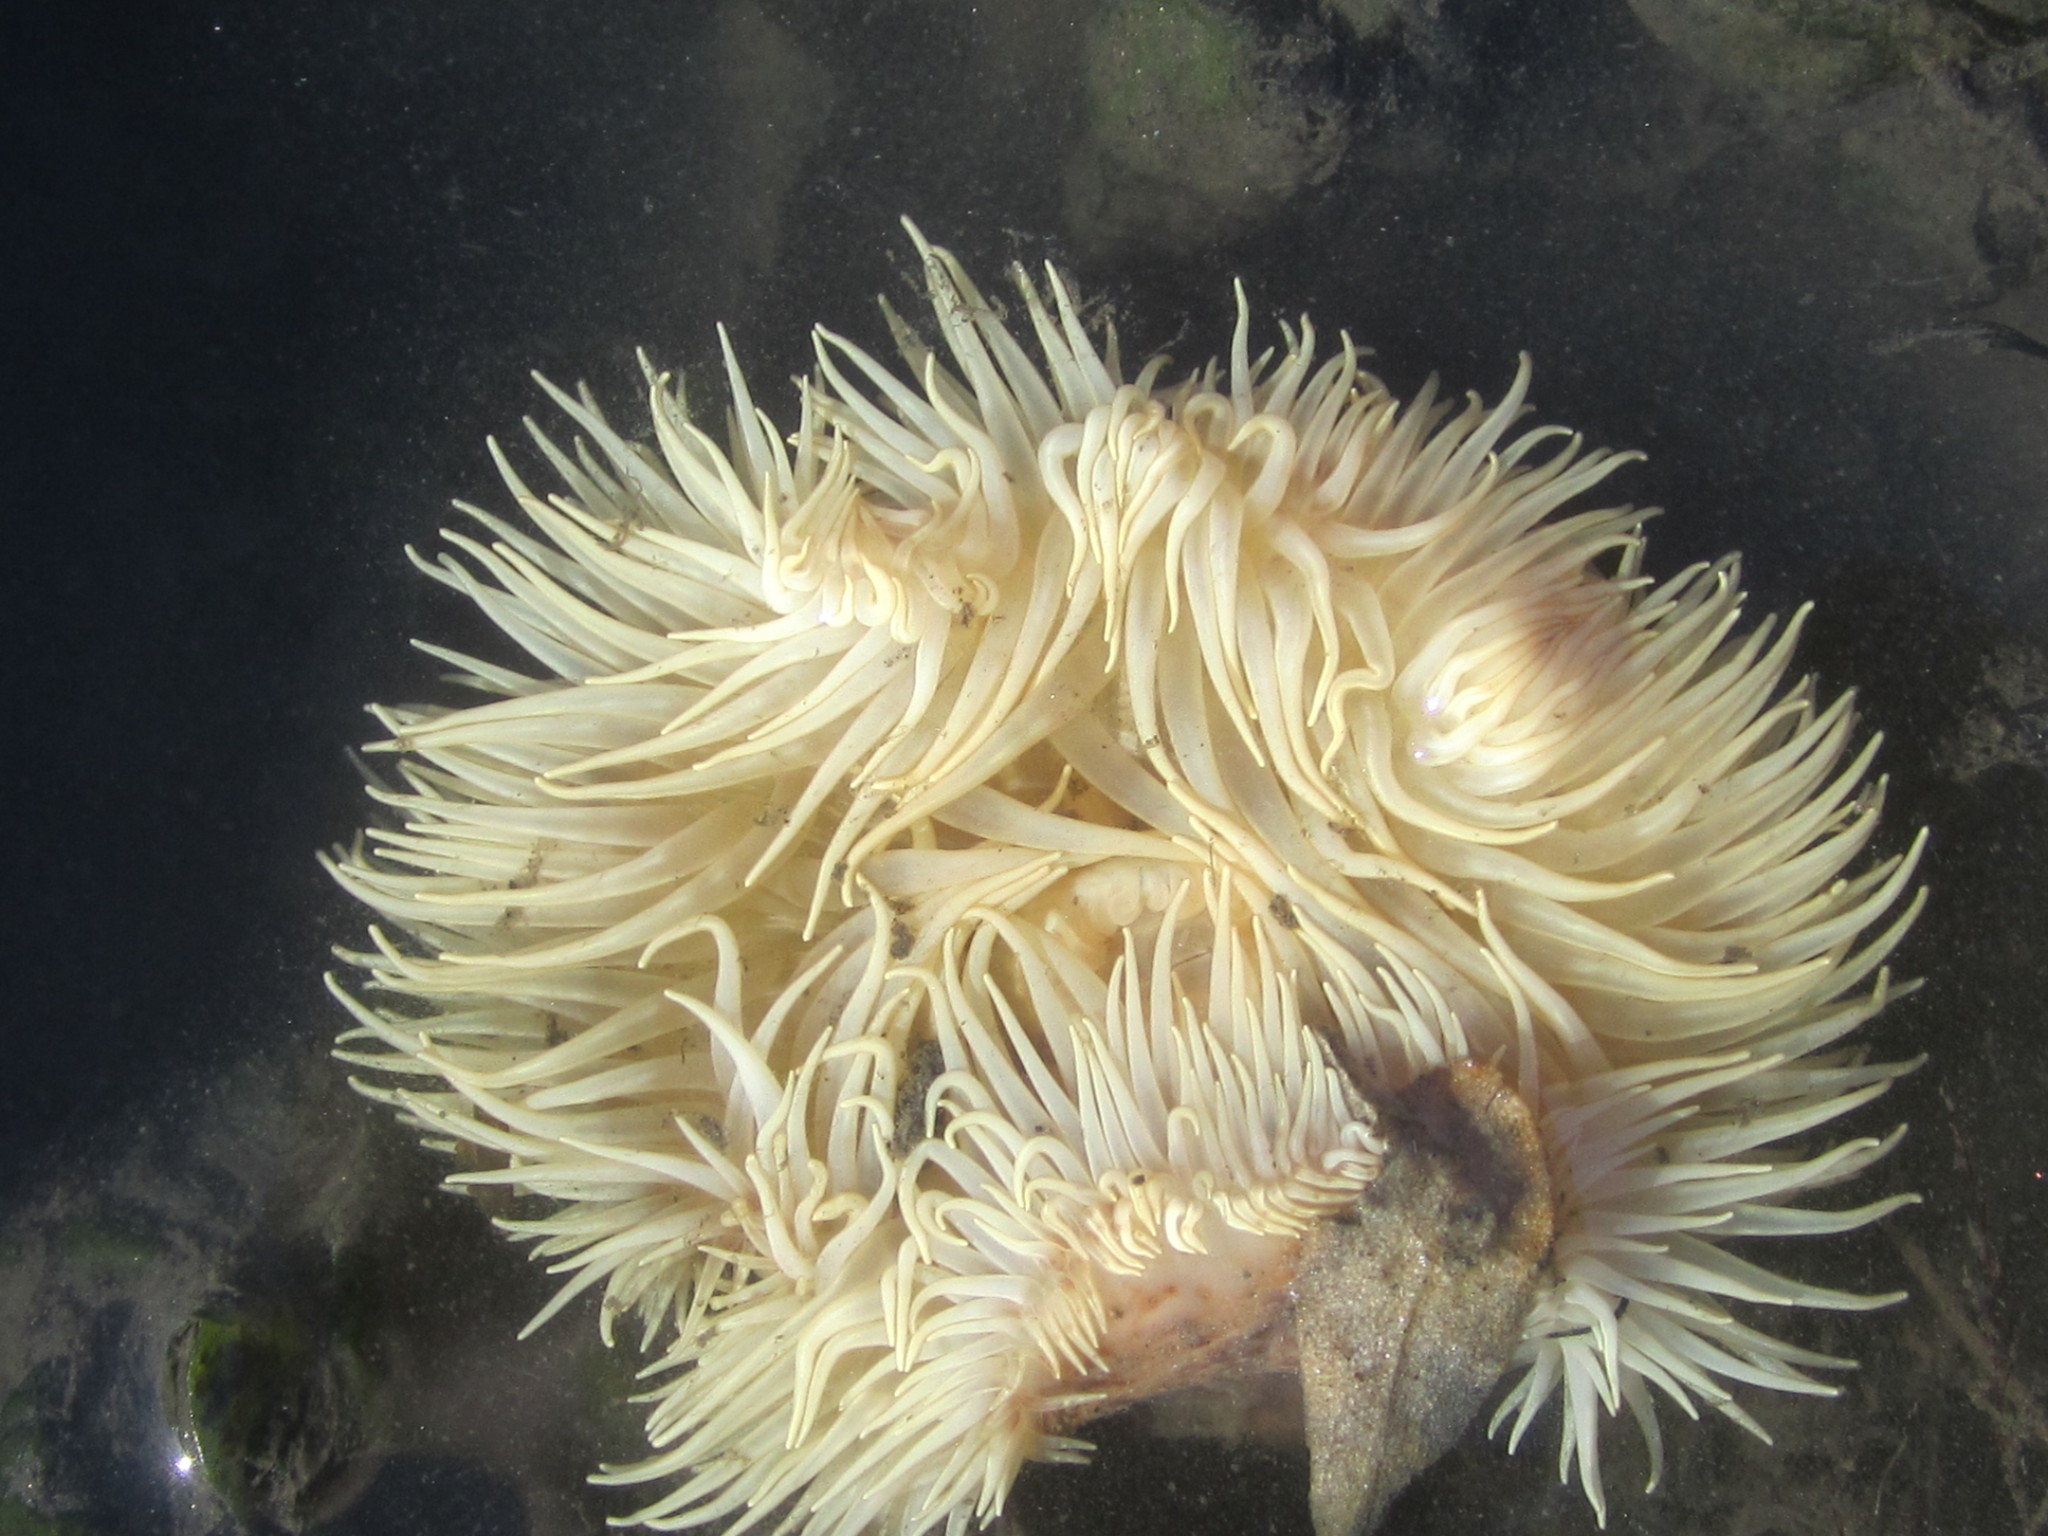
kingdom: Animalia
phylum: Cnidaria
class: Anthozoa
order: Actiniaria
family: Hormathiidae
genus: Calliactis
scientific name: Calliactis parasitica
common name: Parasitic anemone
